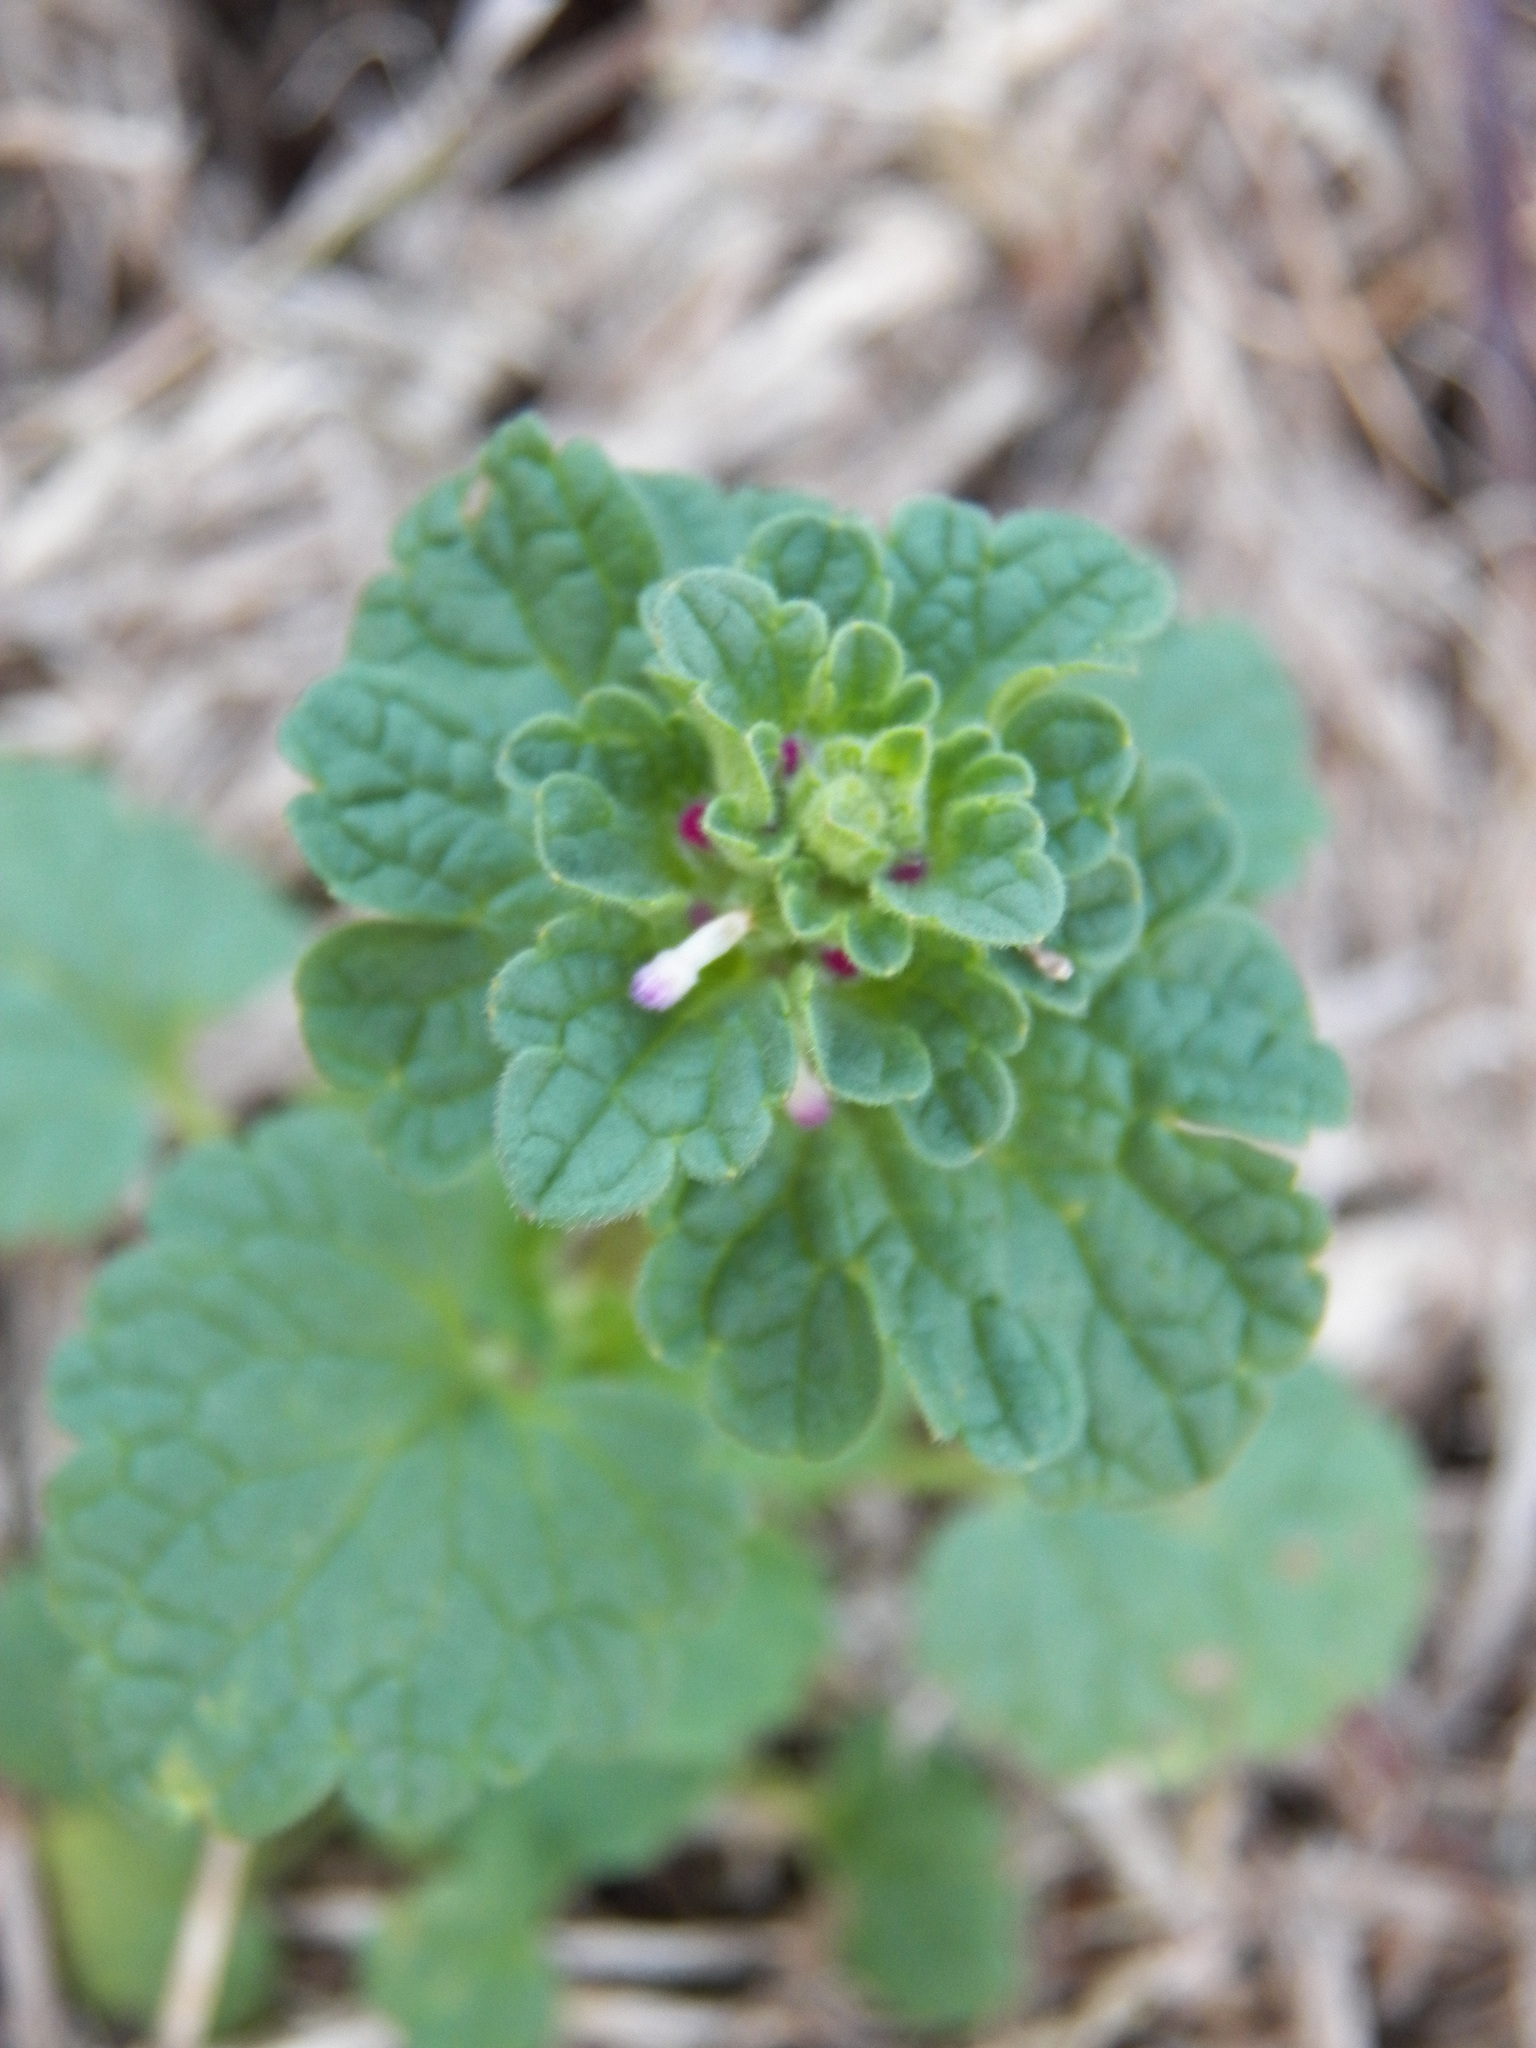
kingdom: Plantae
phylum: Tracheophyta
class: Magnoliopsida
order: Lamiales
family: Lamiaceae
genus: Lamium
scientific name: Lamium amplexicaule
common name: Henbit dead-nettle
